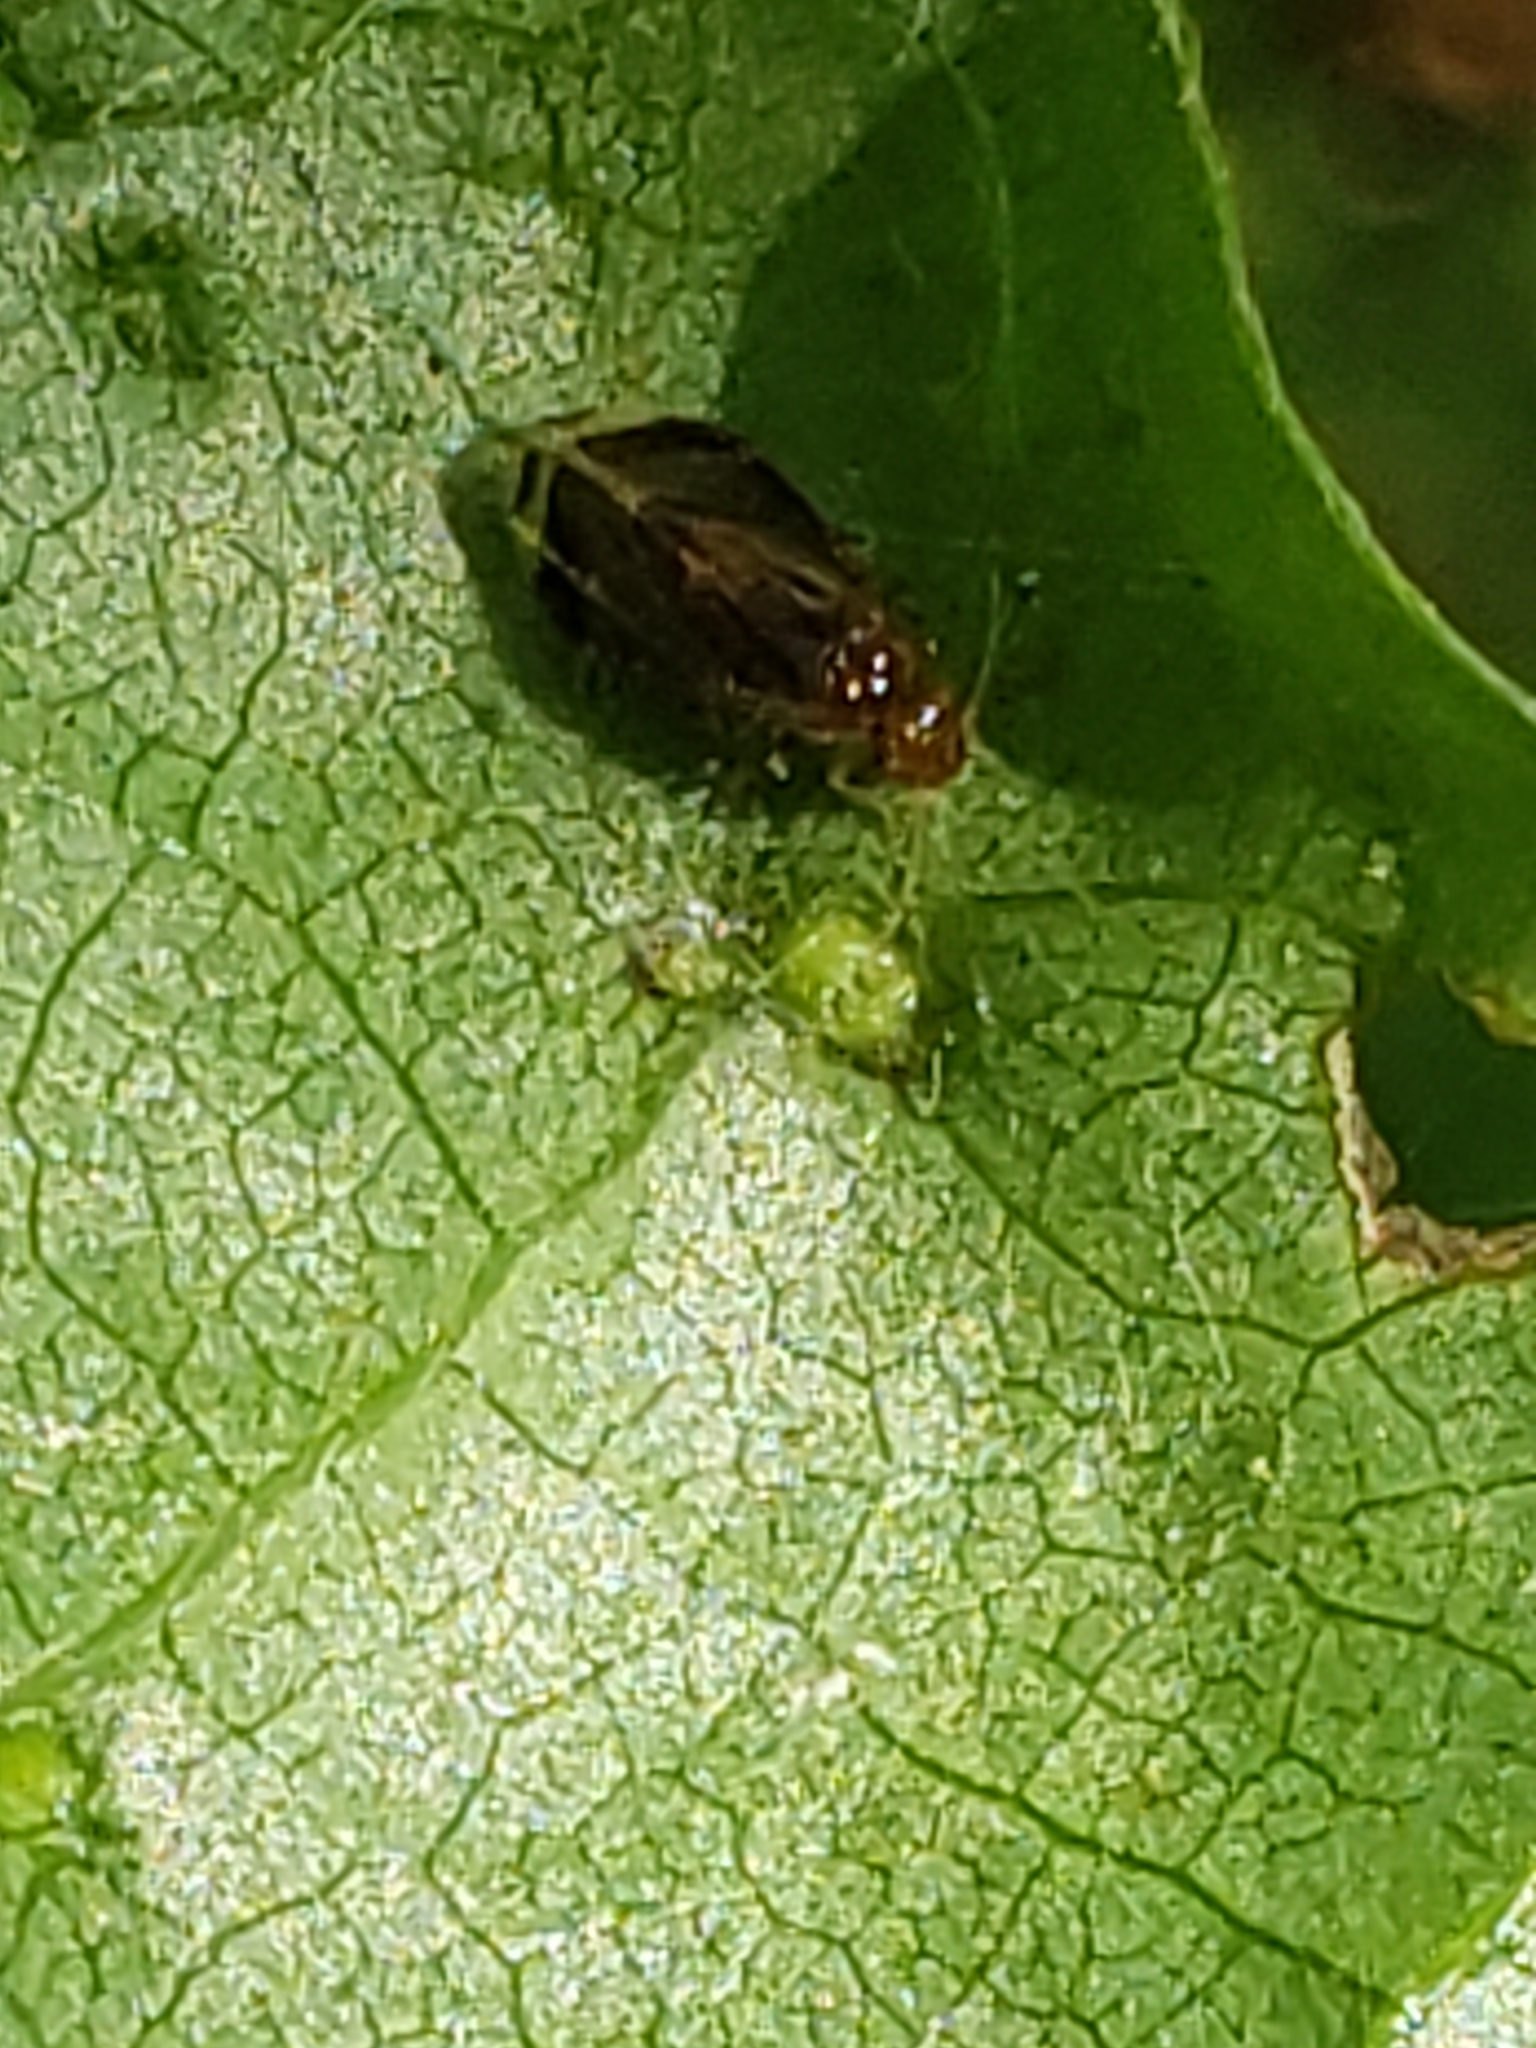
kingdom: Animalia
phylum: Arthropoda
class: Insecta
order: Psocodea
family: Amphipsocidae
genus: Polypsocus
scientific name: Polypsocus corruptus
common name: Corrupt barklouse
